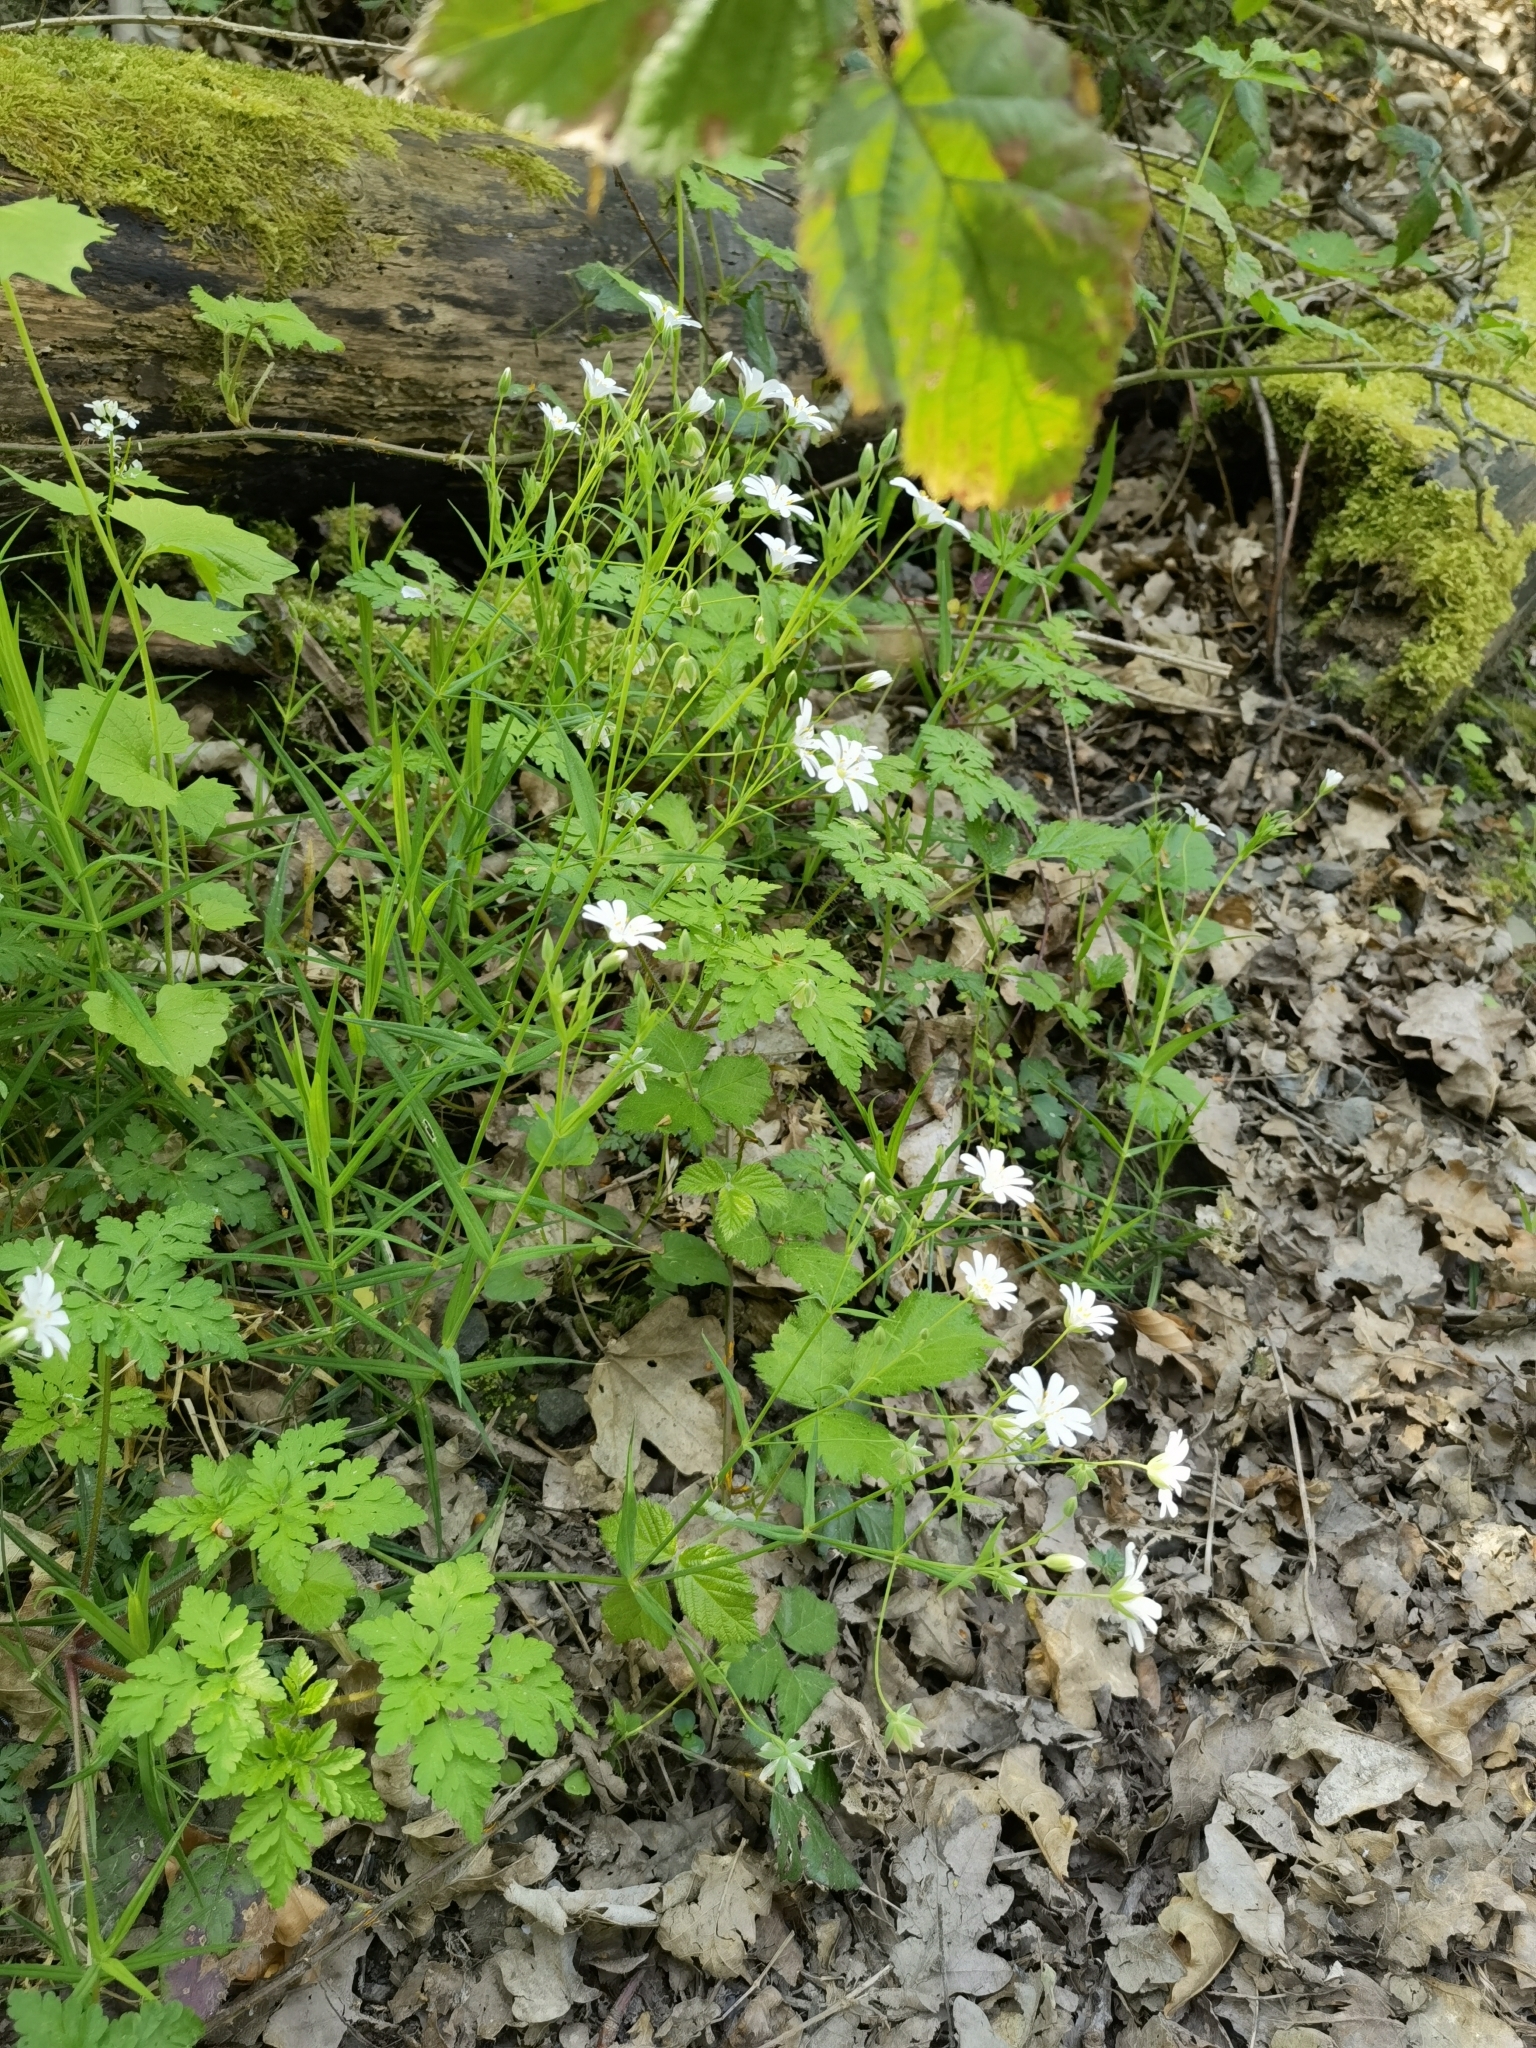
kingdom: Plantae
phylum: Tracheophyta
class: Magnoliopsida
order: Caryophyllales
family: Caryophyllaceae
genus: Rabelera
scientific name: Rabelera holostea
